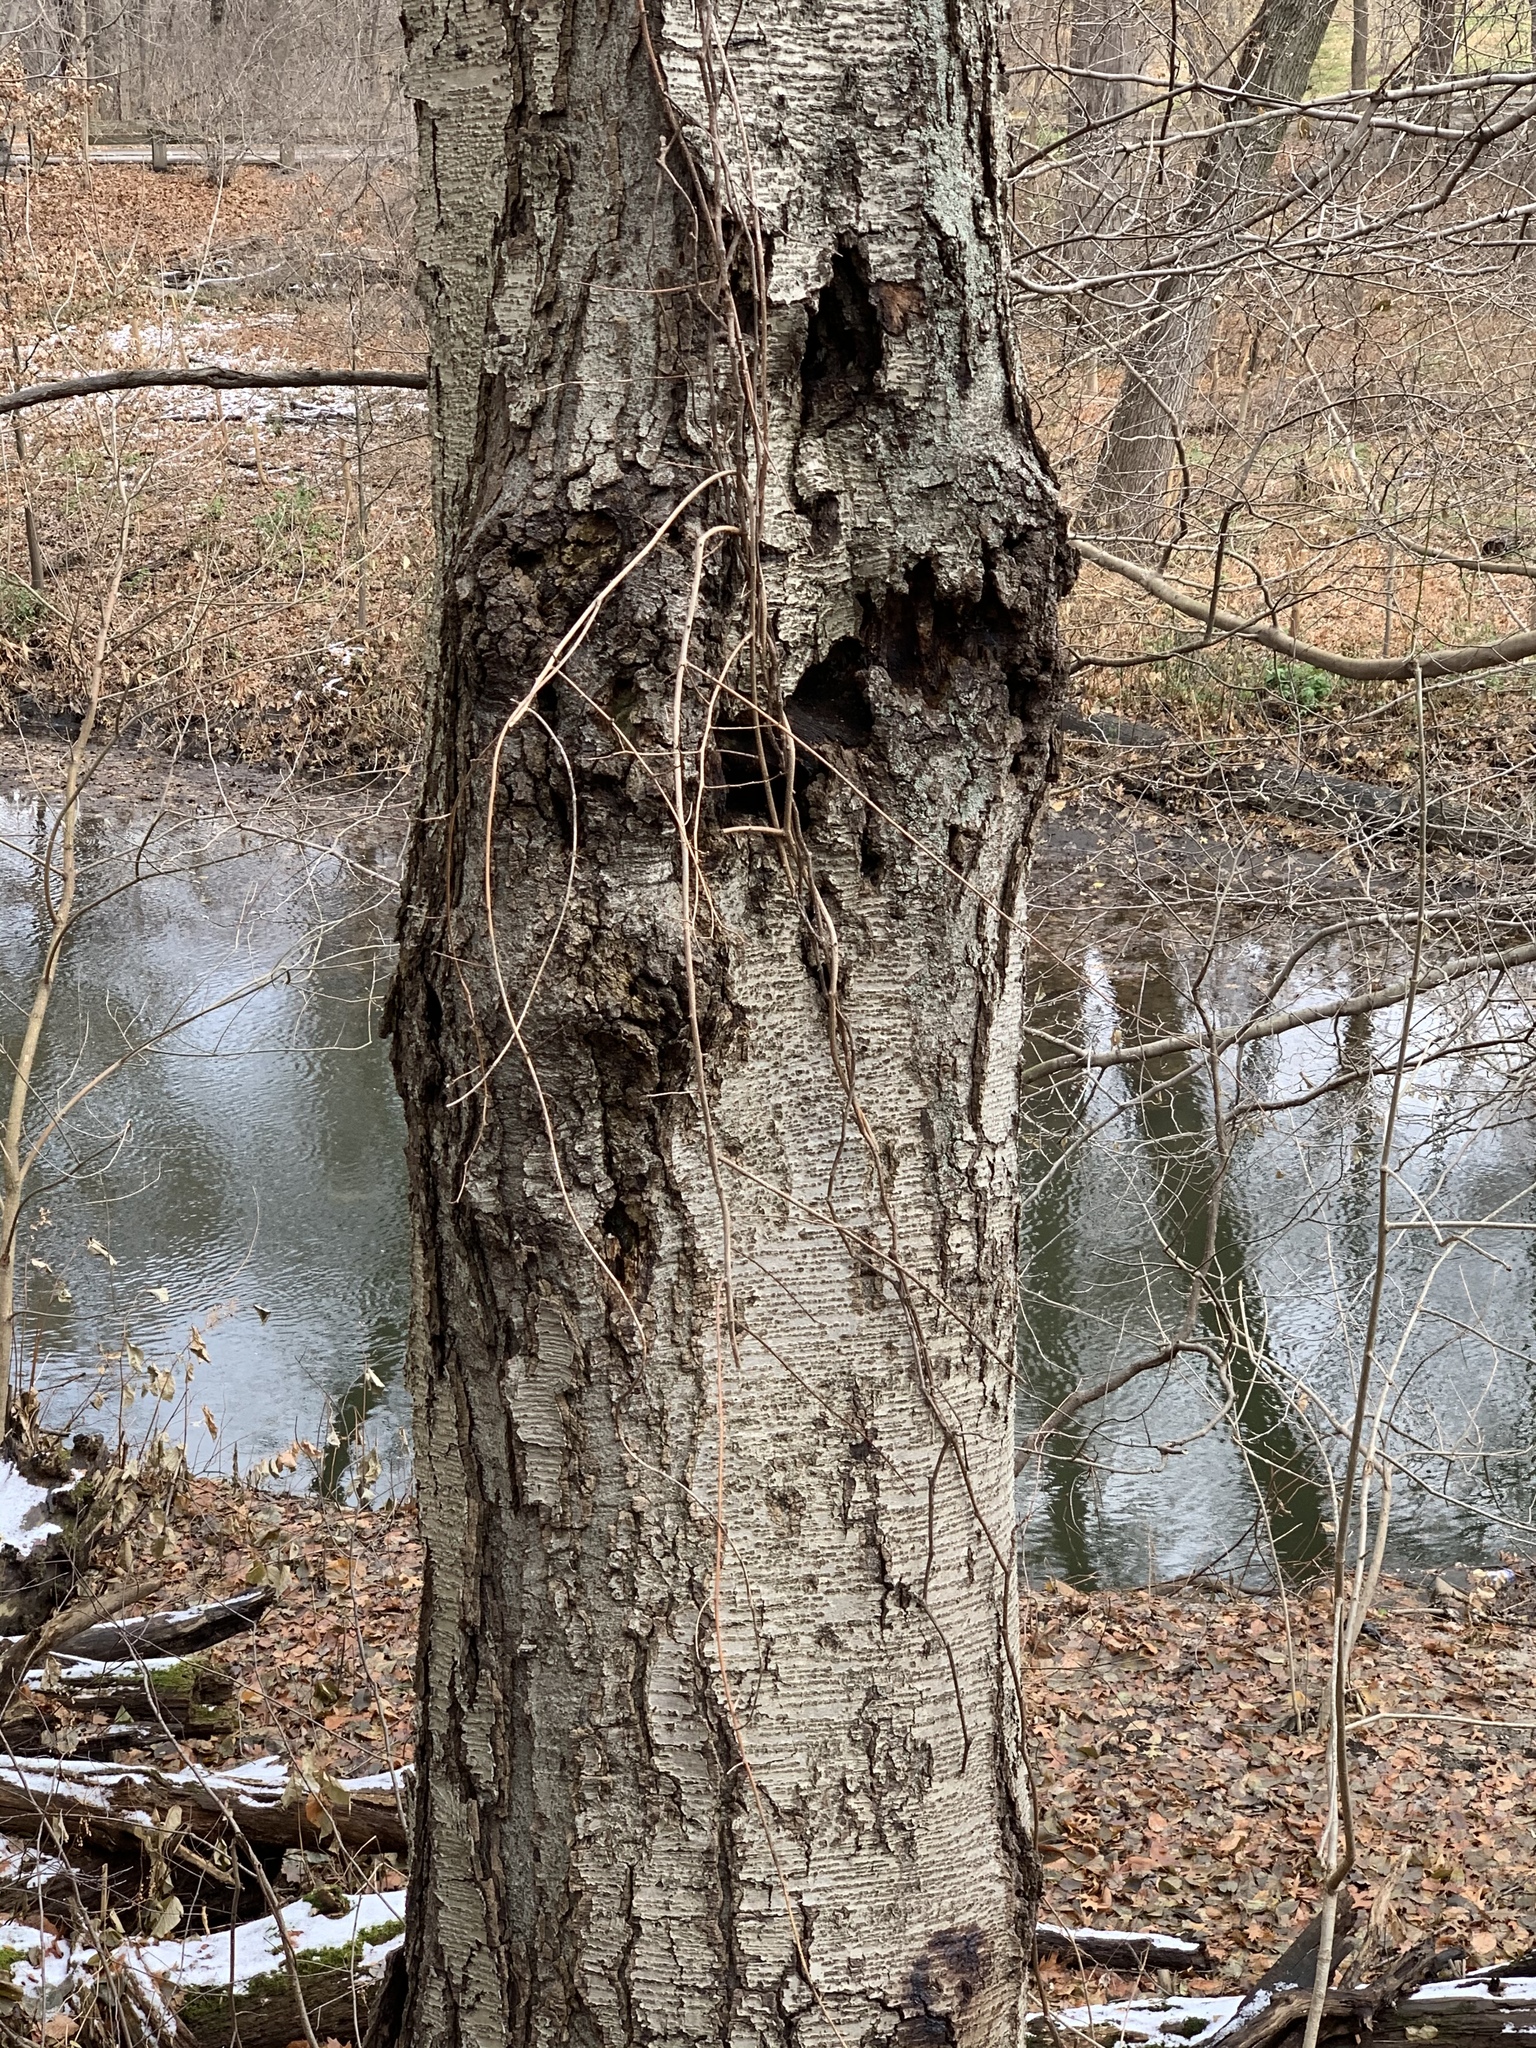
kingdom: Plantae
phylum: Tracheophyta
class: Magnoliopsida
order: Fagales
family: Betulaceae
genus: Betula
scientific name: Betula lenta
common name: Black birch
